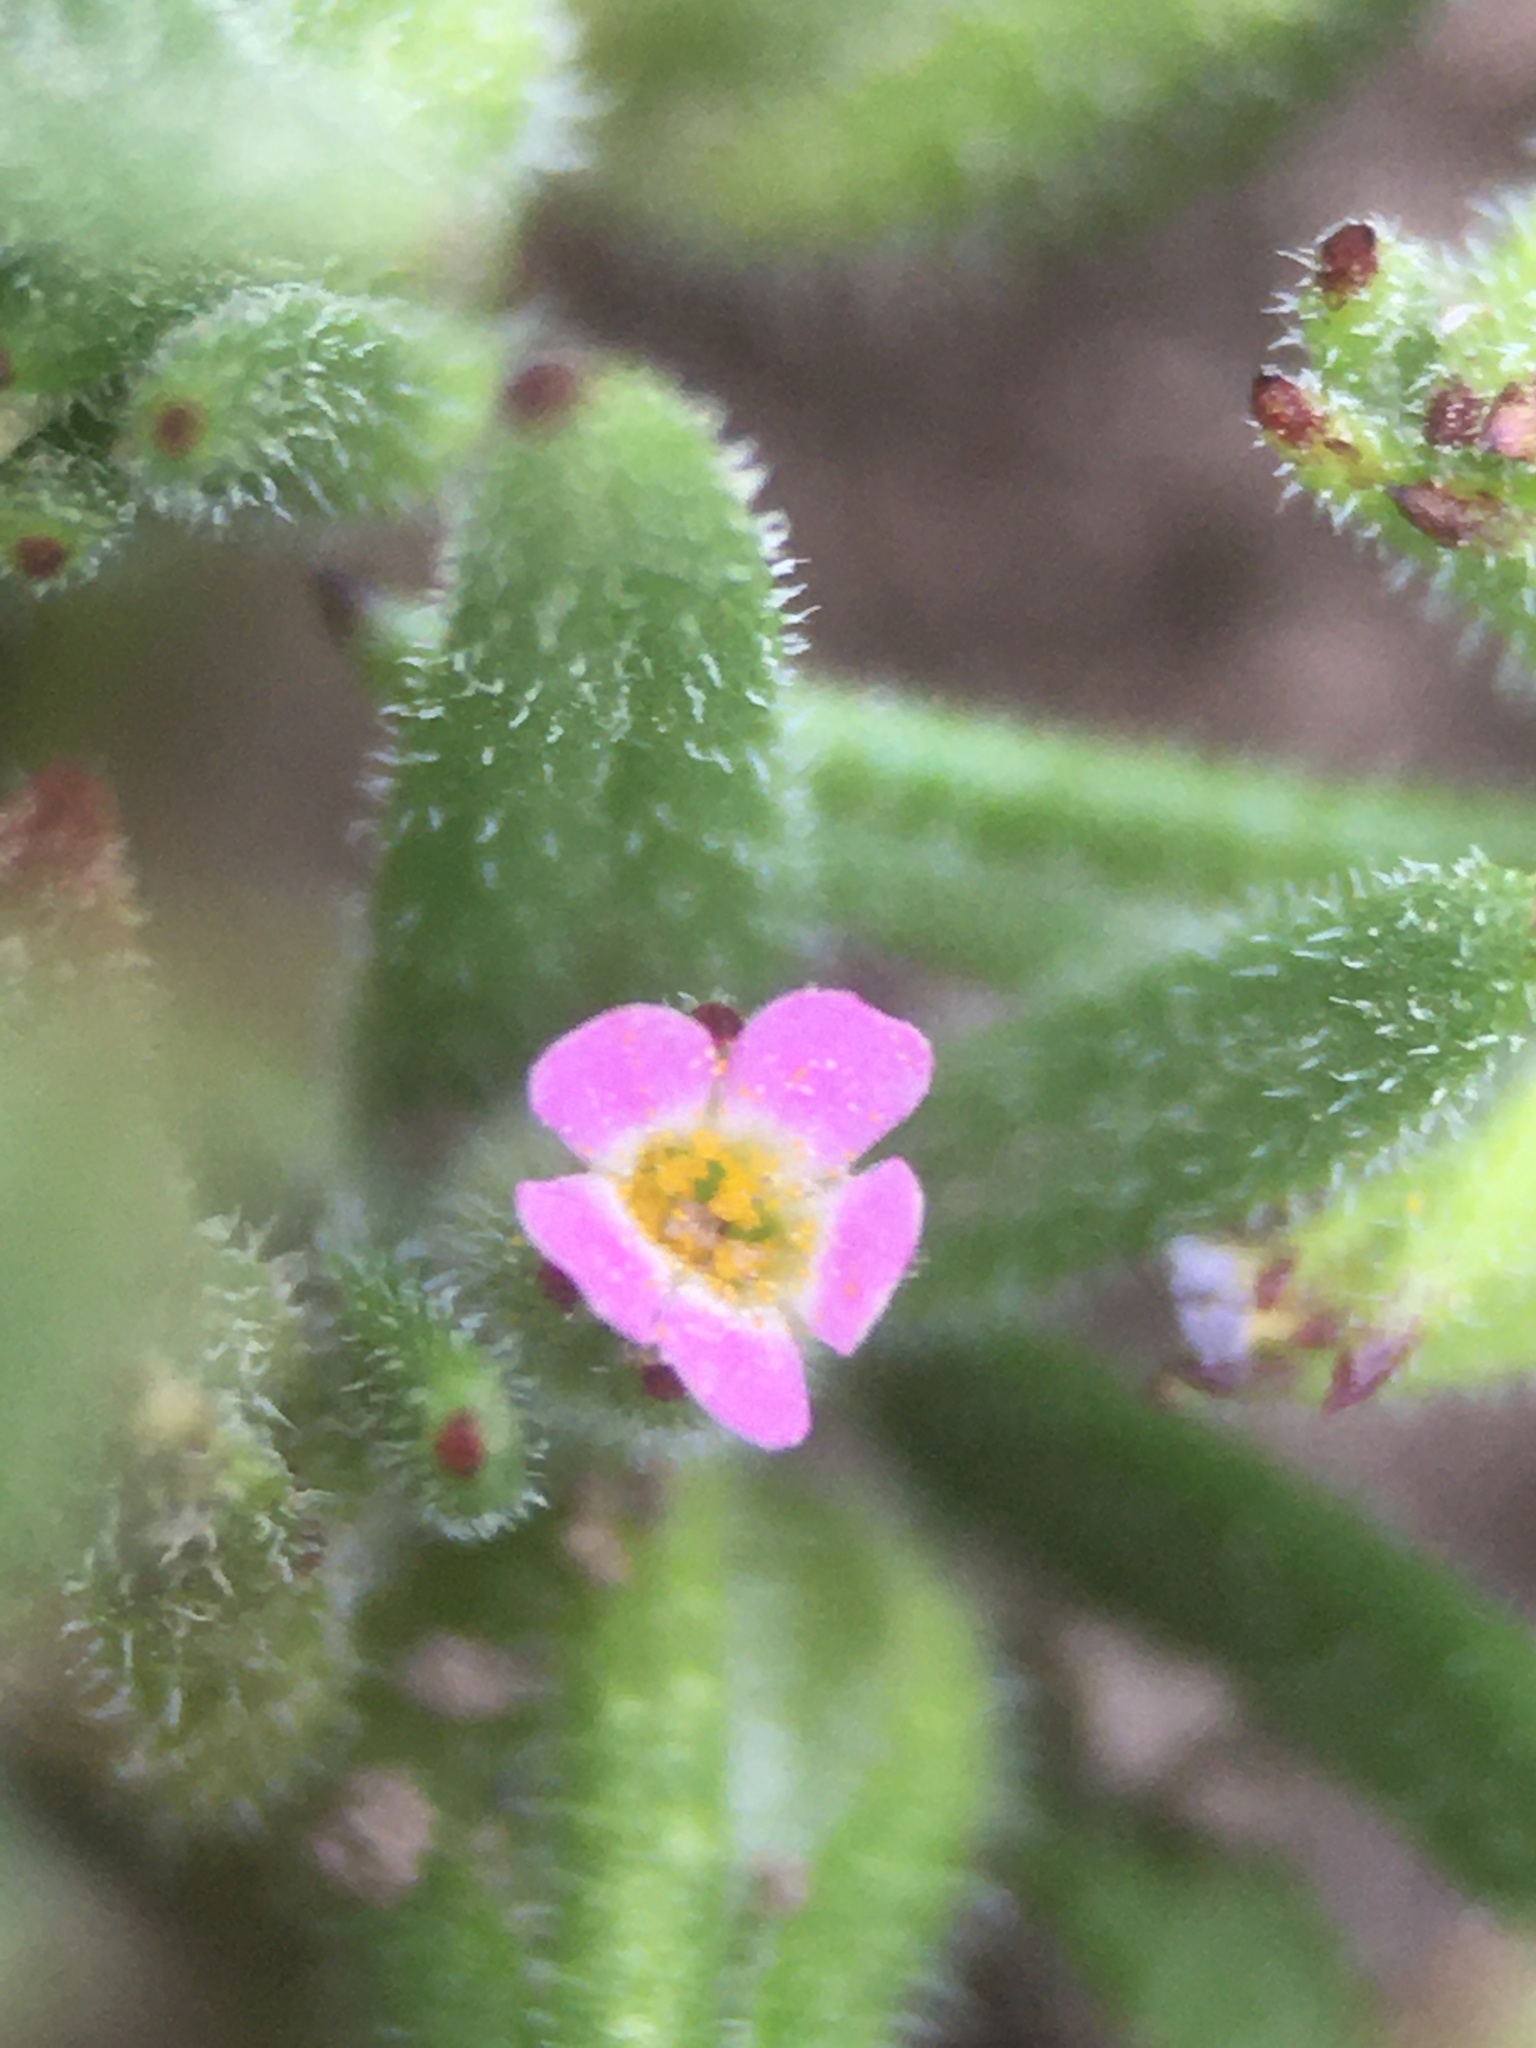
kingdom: Plantae
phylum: Tracheophyta
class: Magnoliopsida
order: Ericales
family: Polemoniaceae
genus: Phlox
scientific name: Phlox gracilis
